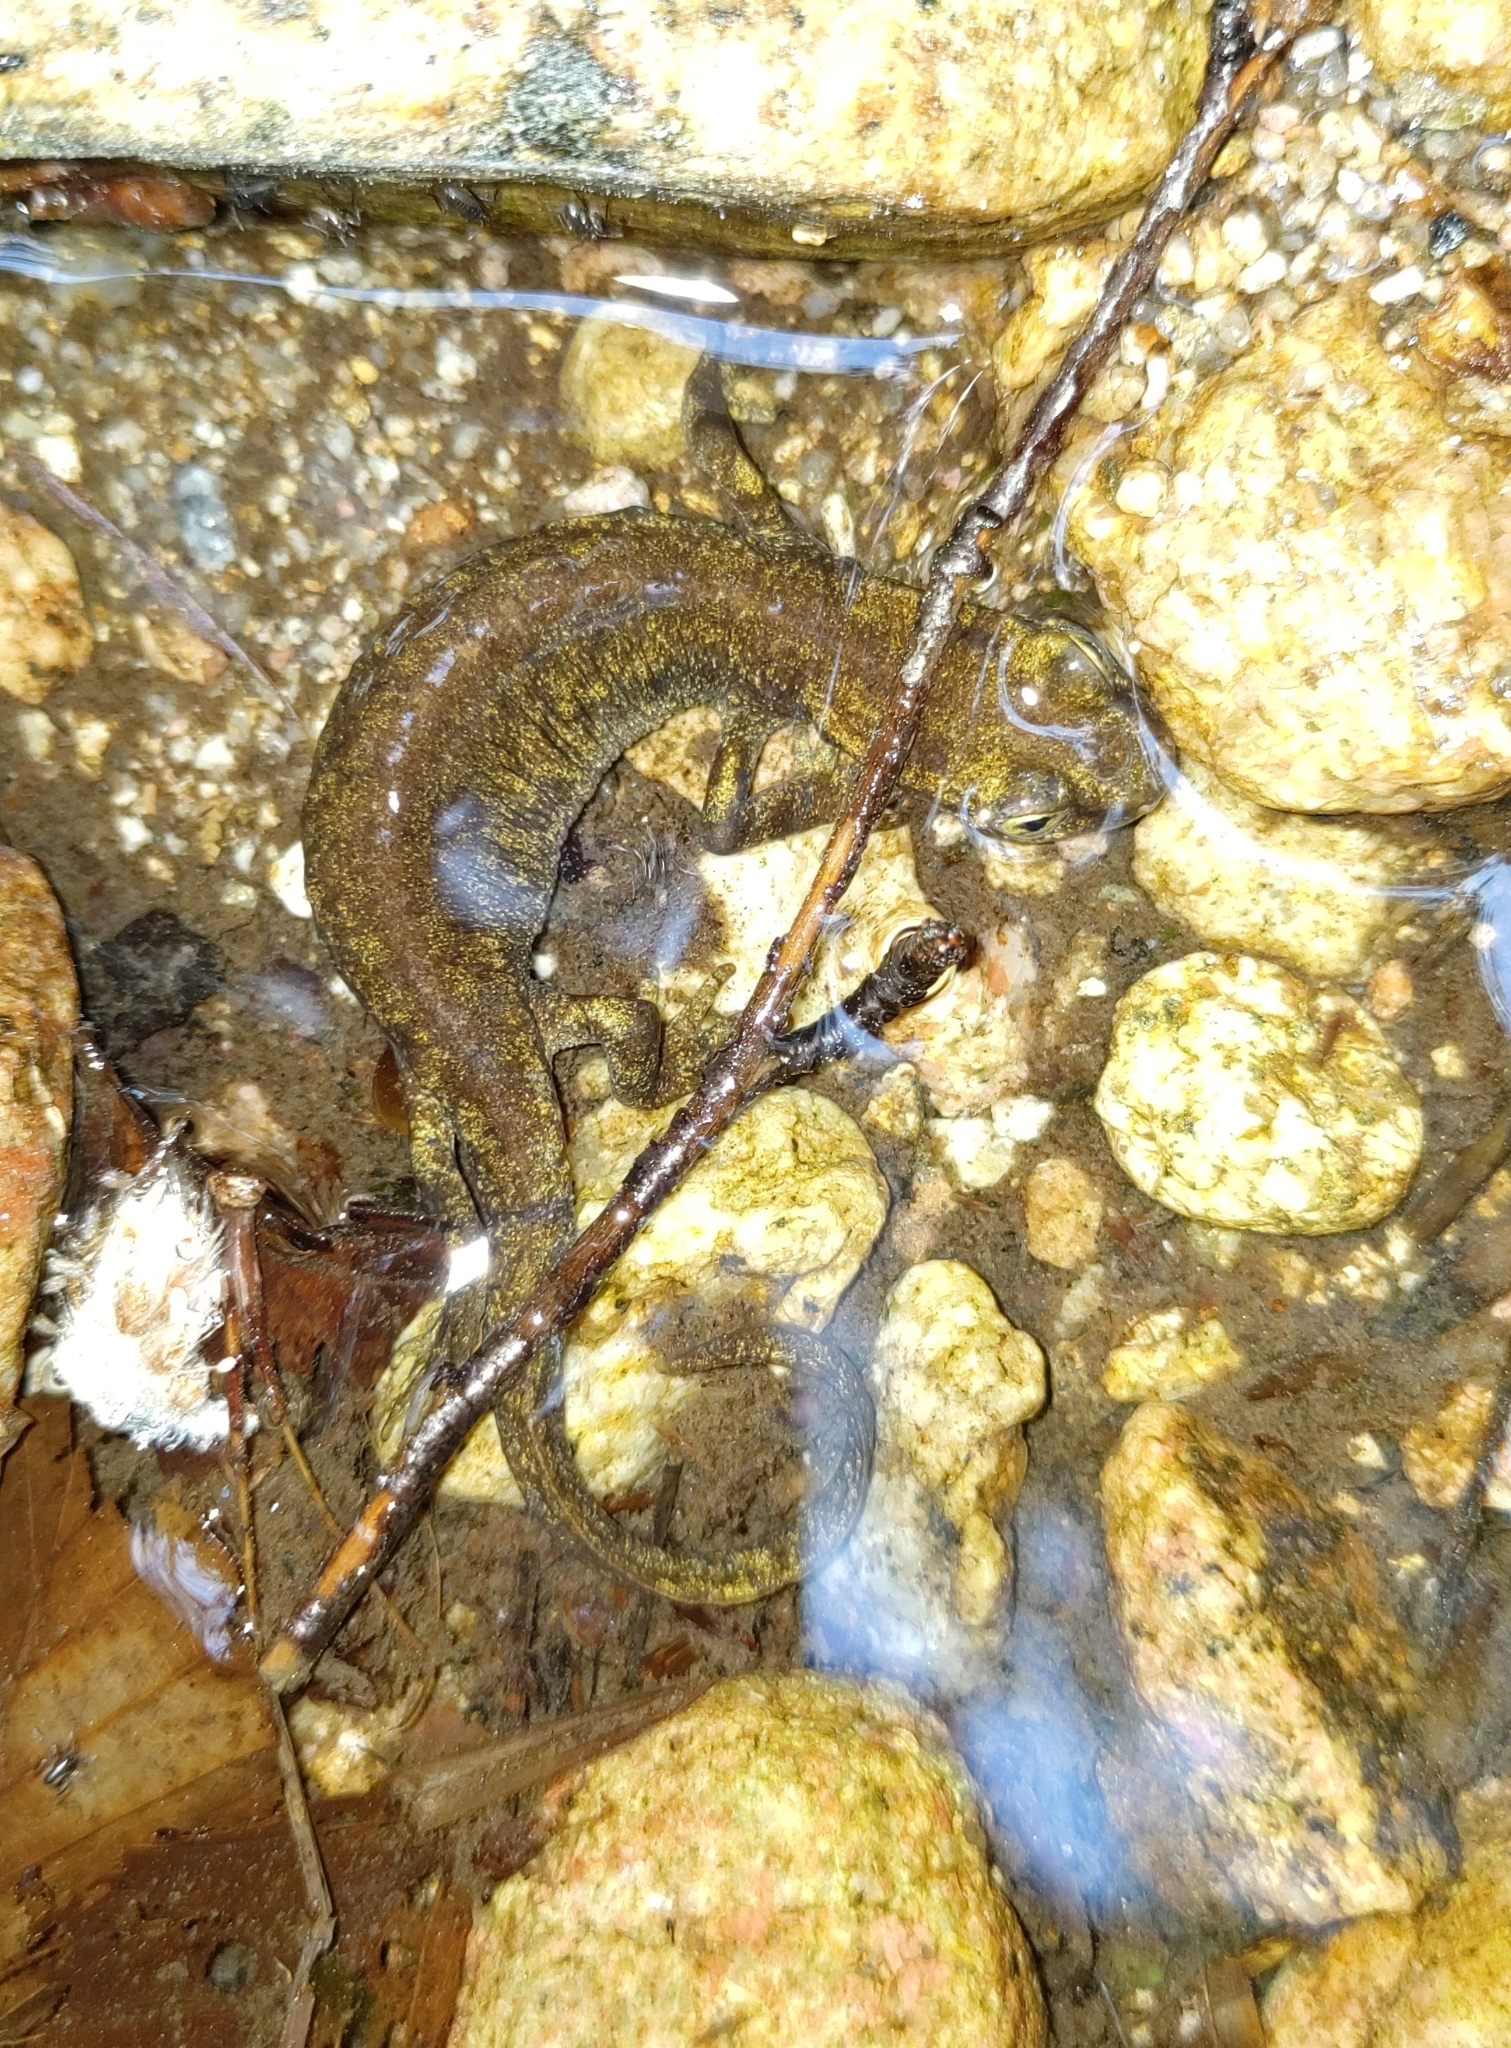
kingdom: Animalia
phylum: Chordata
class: Amphibia
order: Caudata
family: Salamandridae
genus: Euproctus
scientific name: Euproctus montanus
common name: Corsican brook salamander
